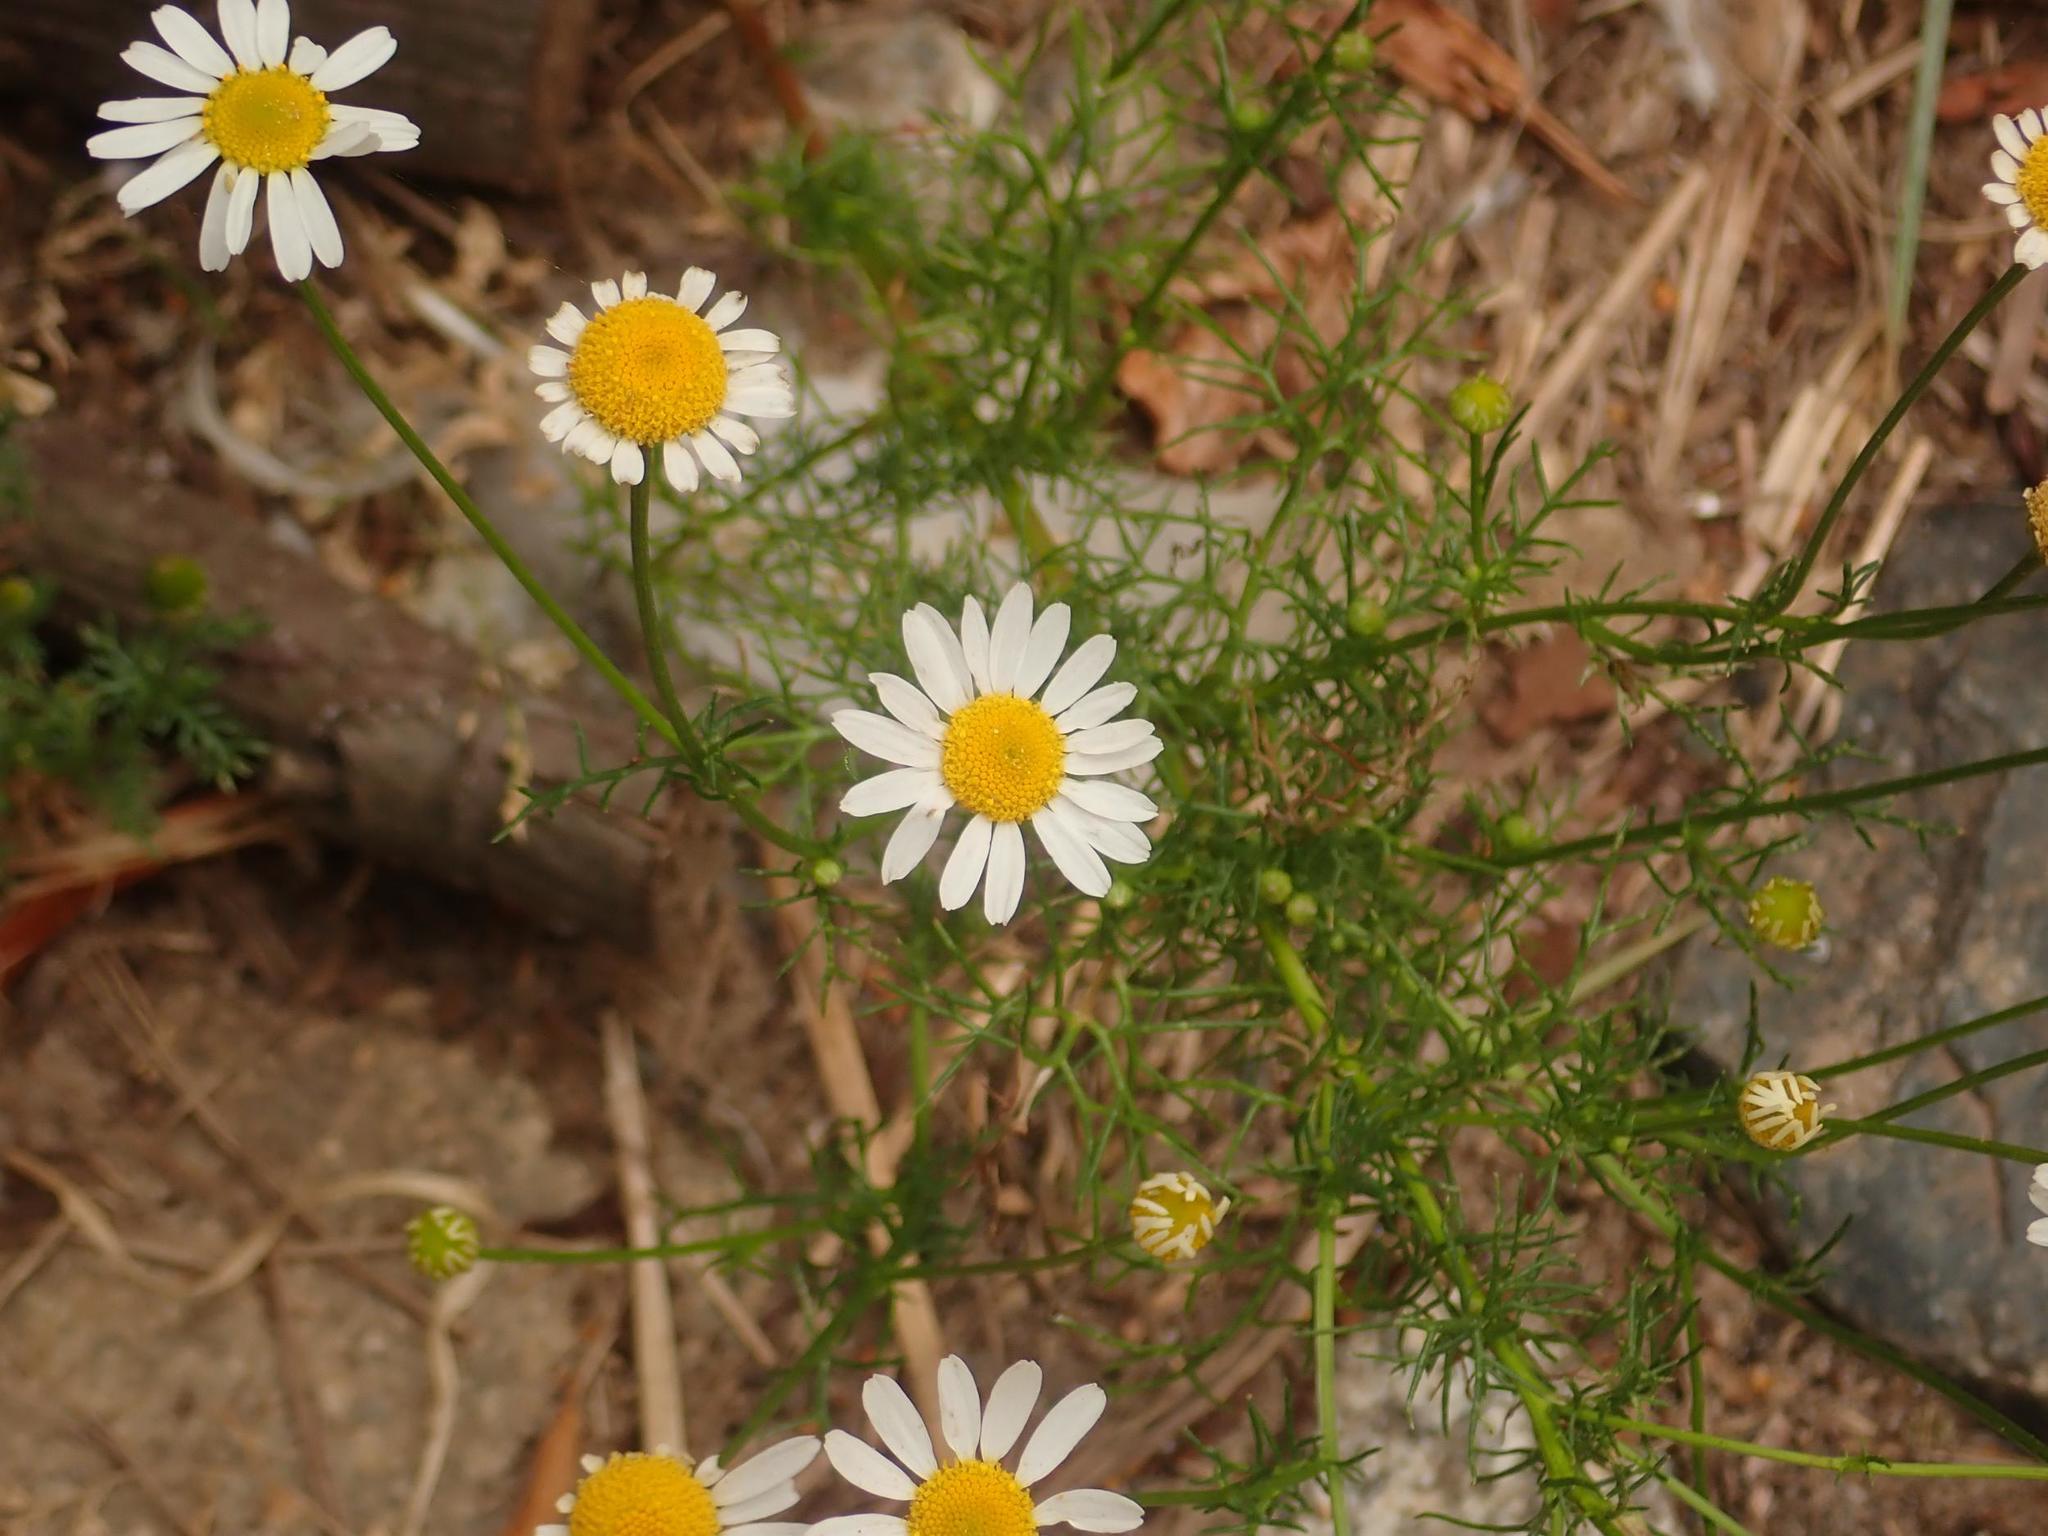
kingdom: Plantae
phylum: Tracheophyta
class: Magnoliopsida
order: Asterales
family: Asteraceae
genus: Tripleurospermum
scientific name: Tripleurospermum inodorum
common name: Scentless mayweed
